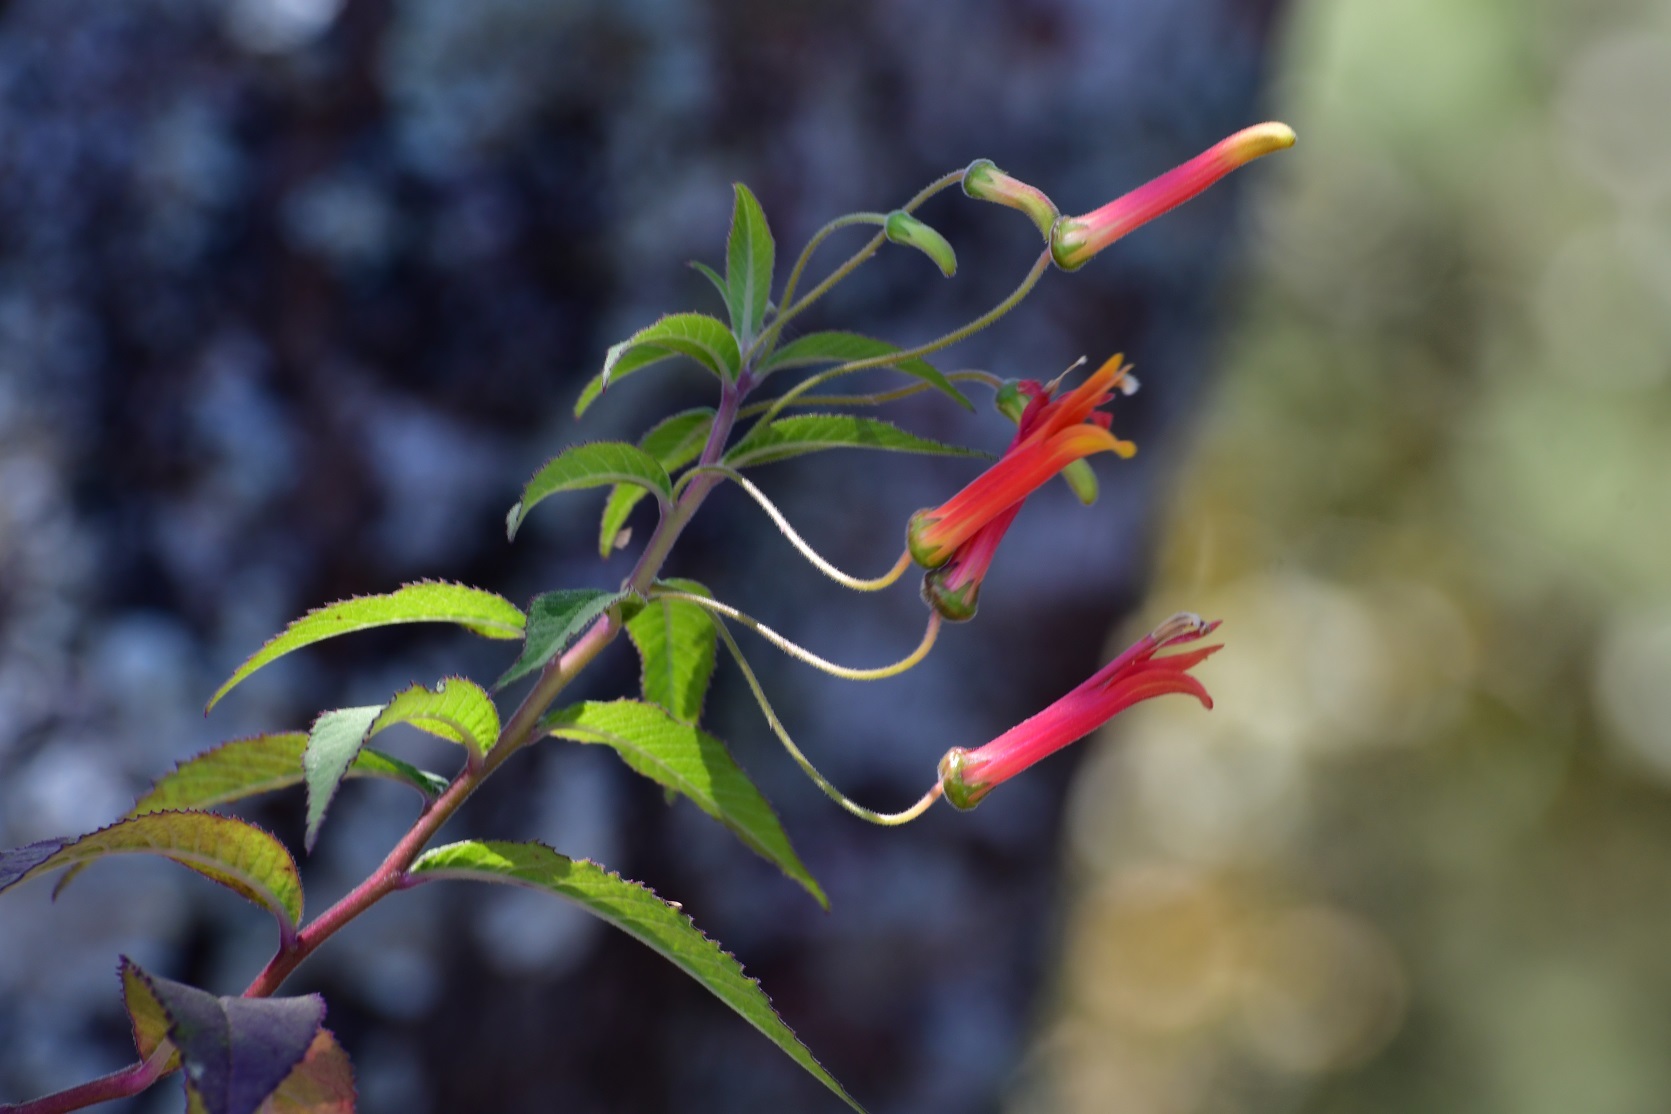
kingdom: Plantae
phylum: Tracheophyta
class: Magnoliopsida
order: Asterales
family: Campanulaceae
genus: Lobelia
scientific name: Lobelia laxiflora
